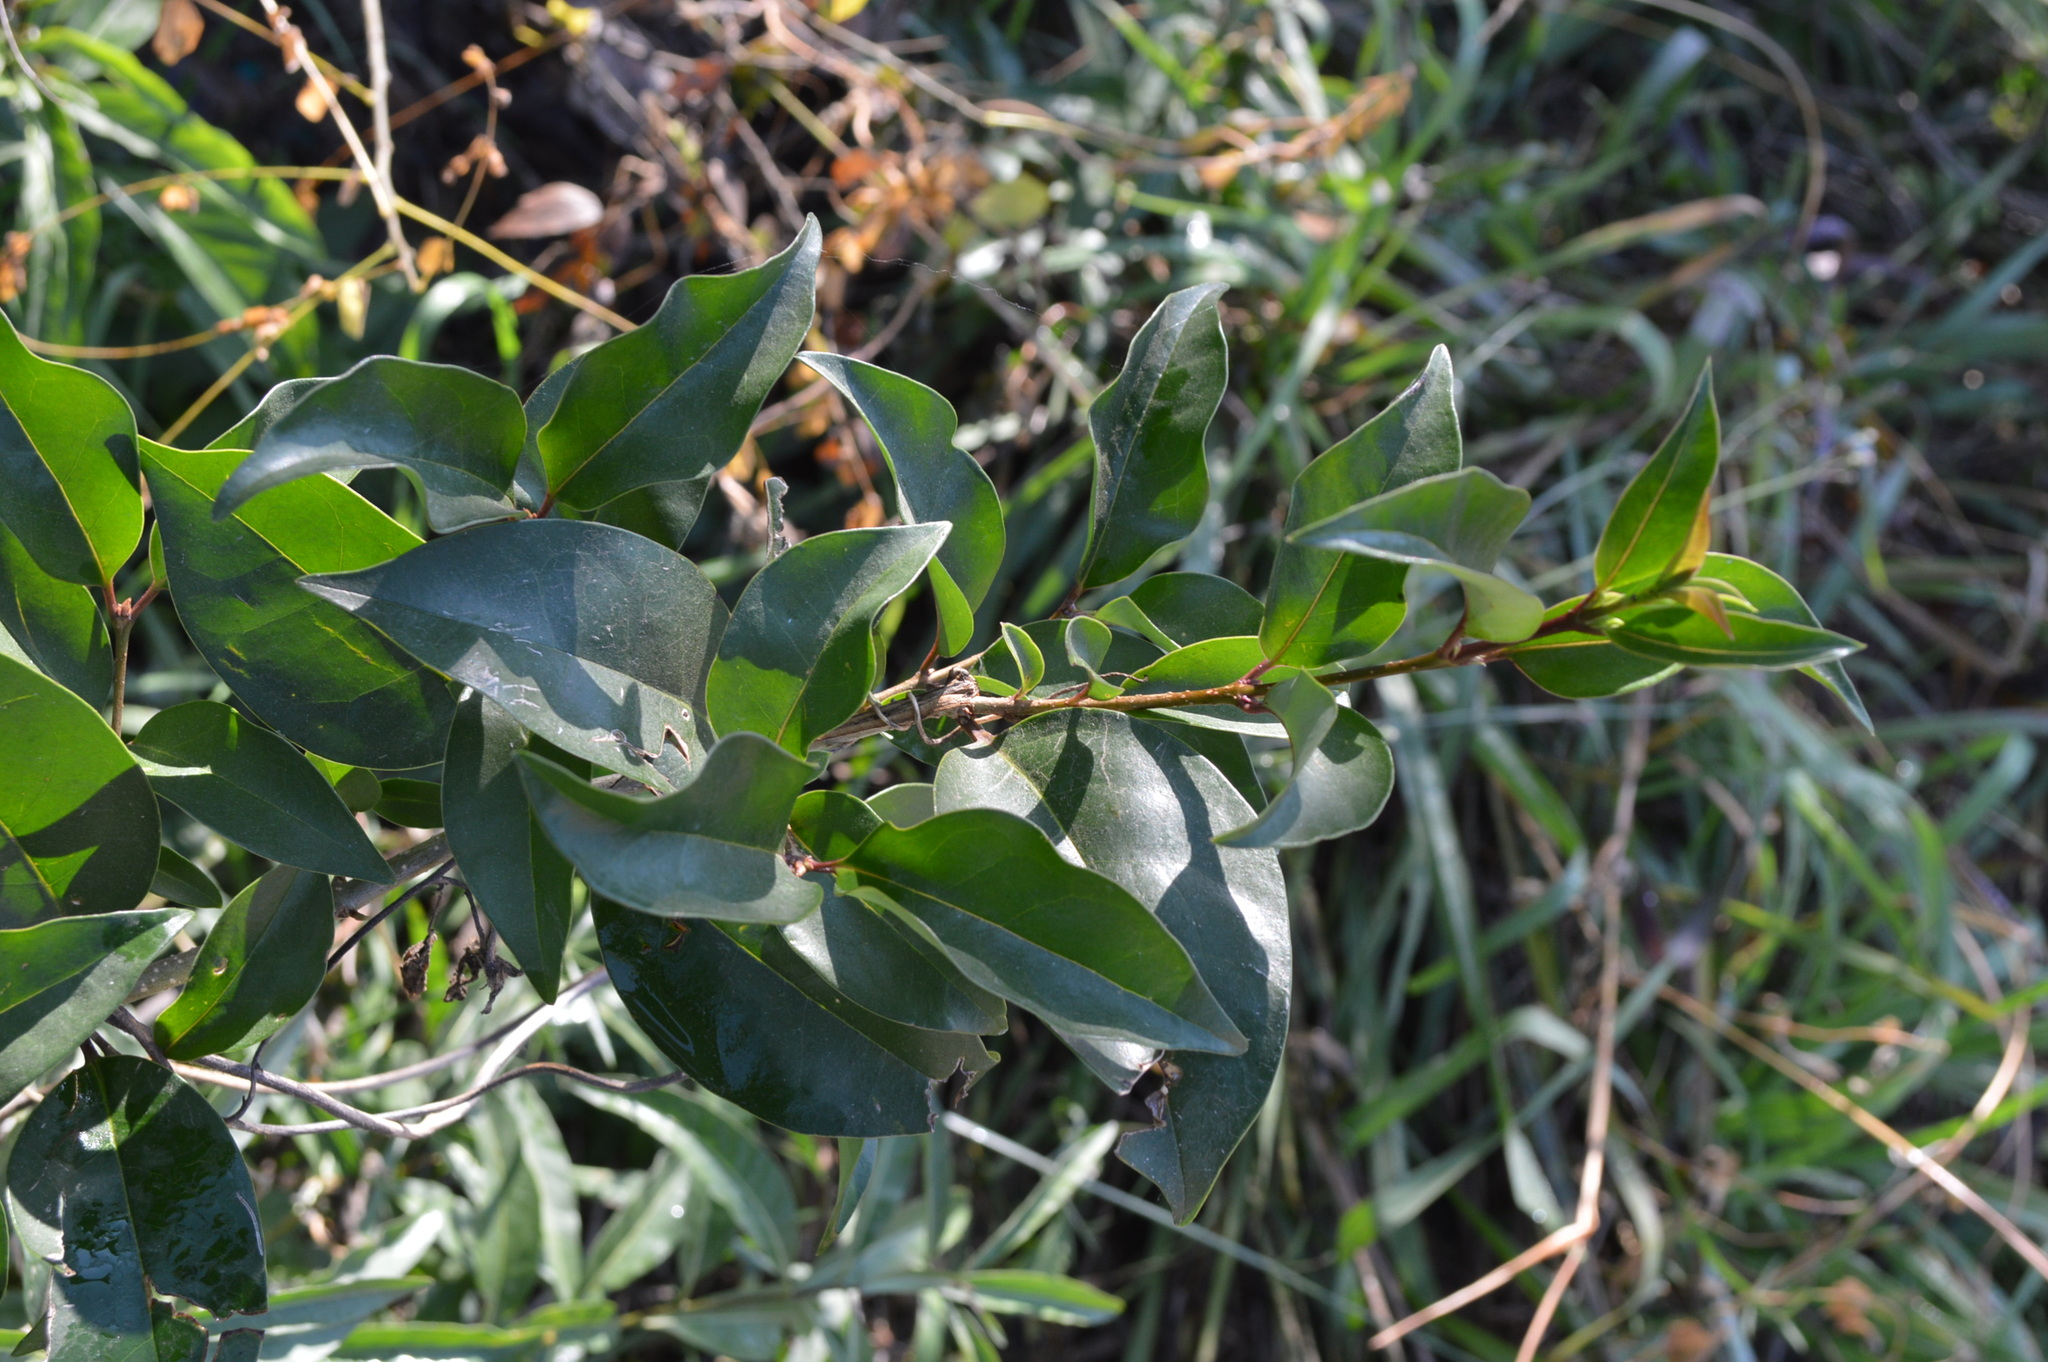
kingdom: Plantae
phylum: Tracheophyta
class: Magnoliopsida
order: Lamiales
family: Oleaceae
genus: Ligustrum
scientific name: Ligustrum lucidum
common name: Glossy privet
